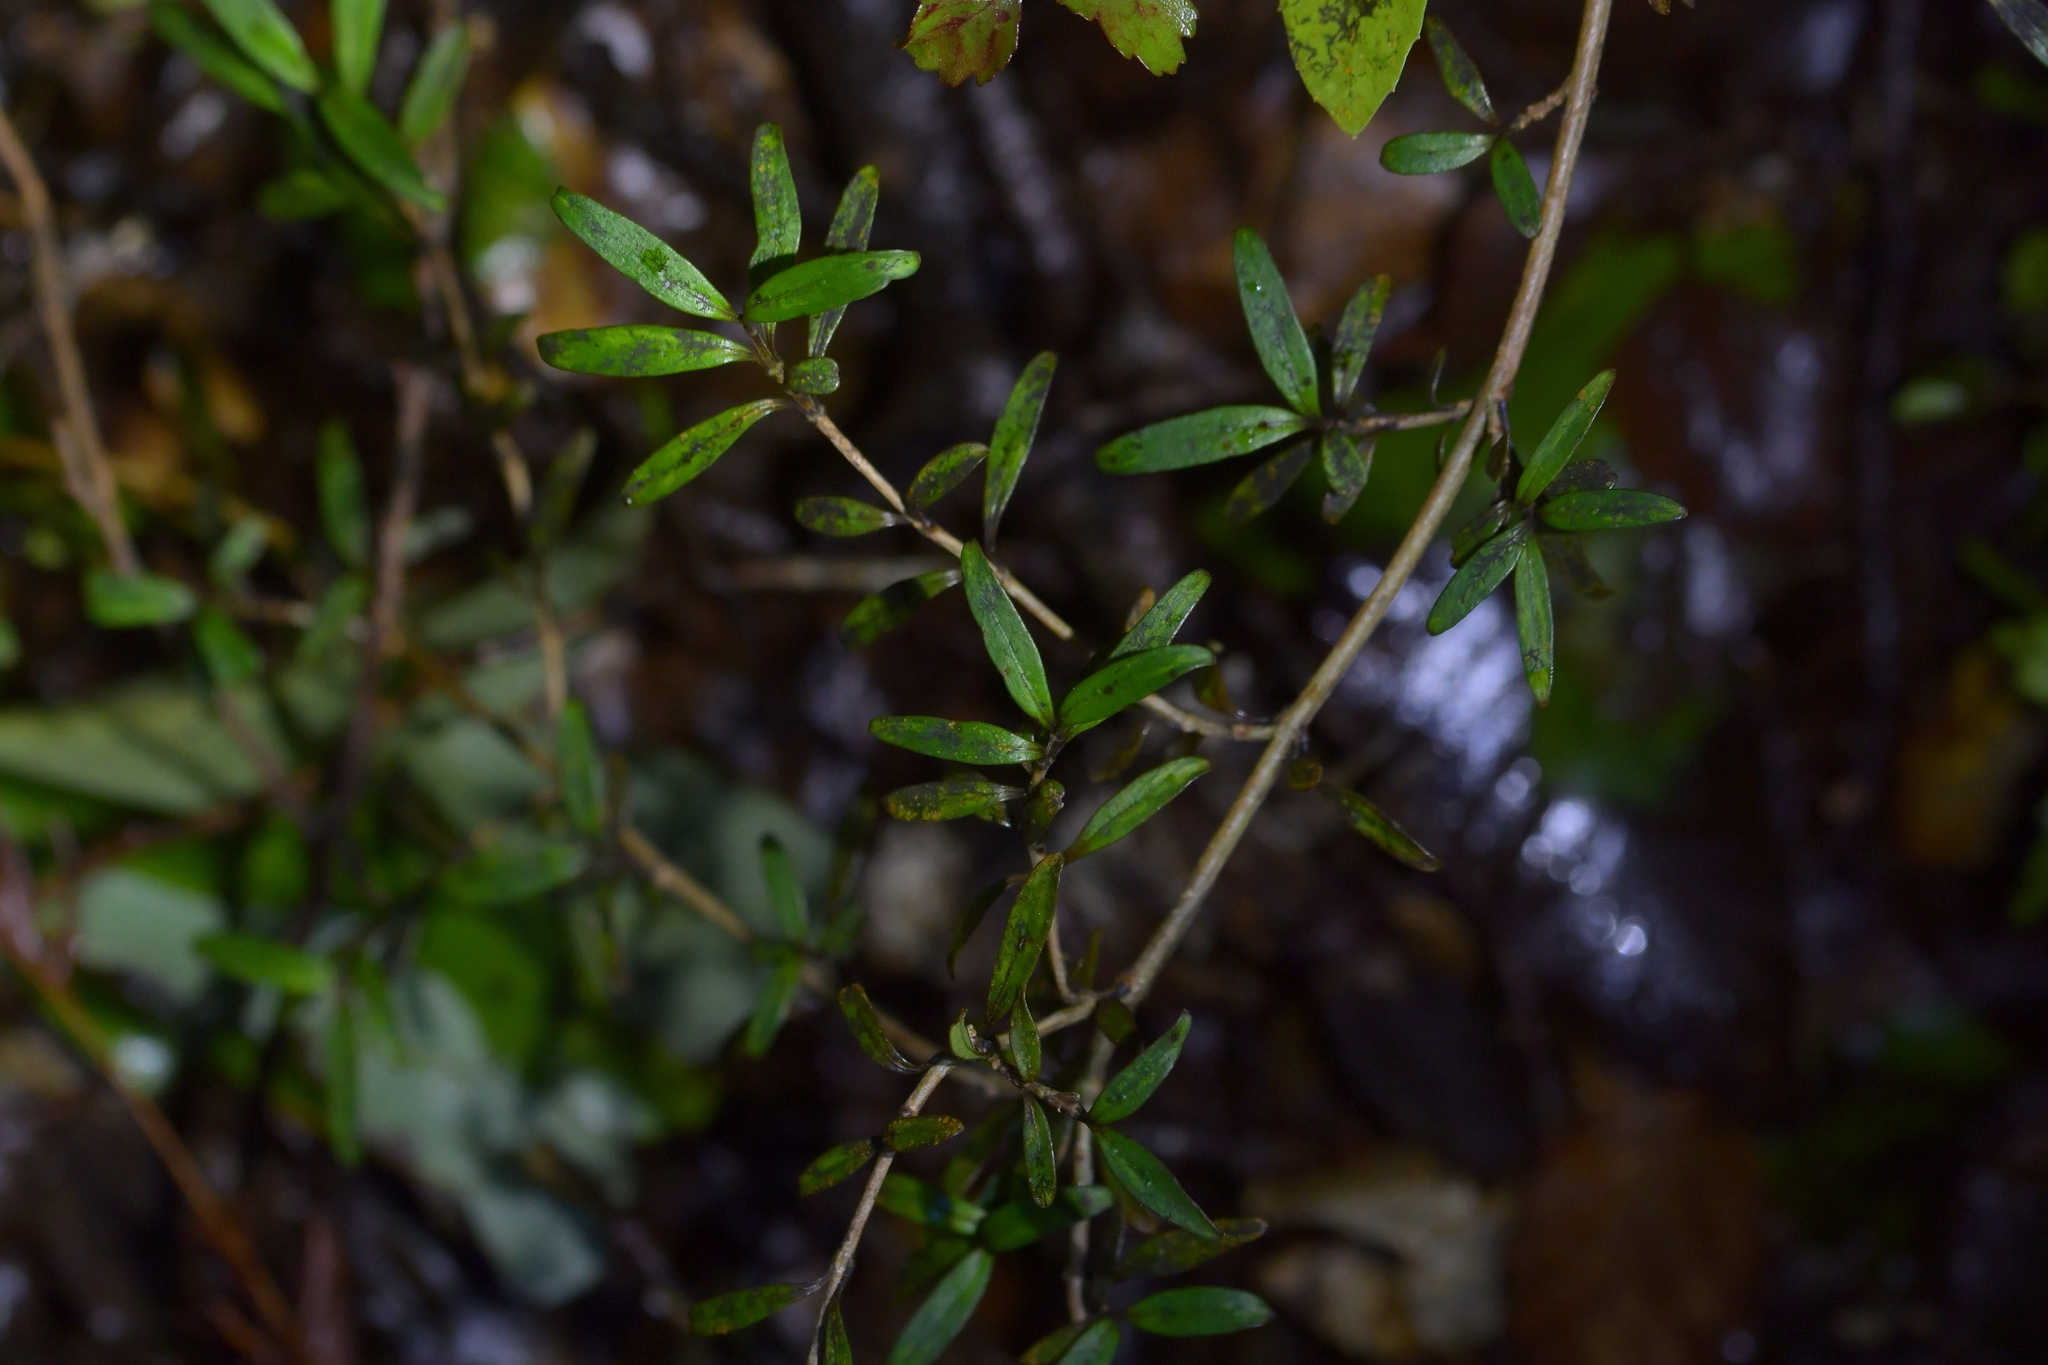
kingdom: Plantae
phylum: Tracheophyta
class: Magnoliopsida
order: Gentianales
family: Rubiaceae
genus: Coprosma
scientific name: Coprosma linariifolia
